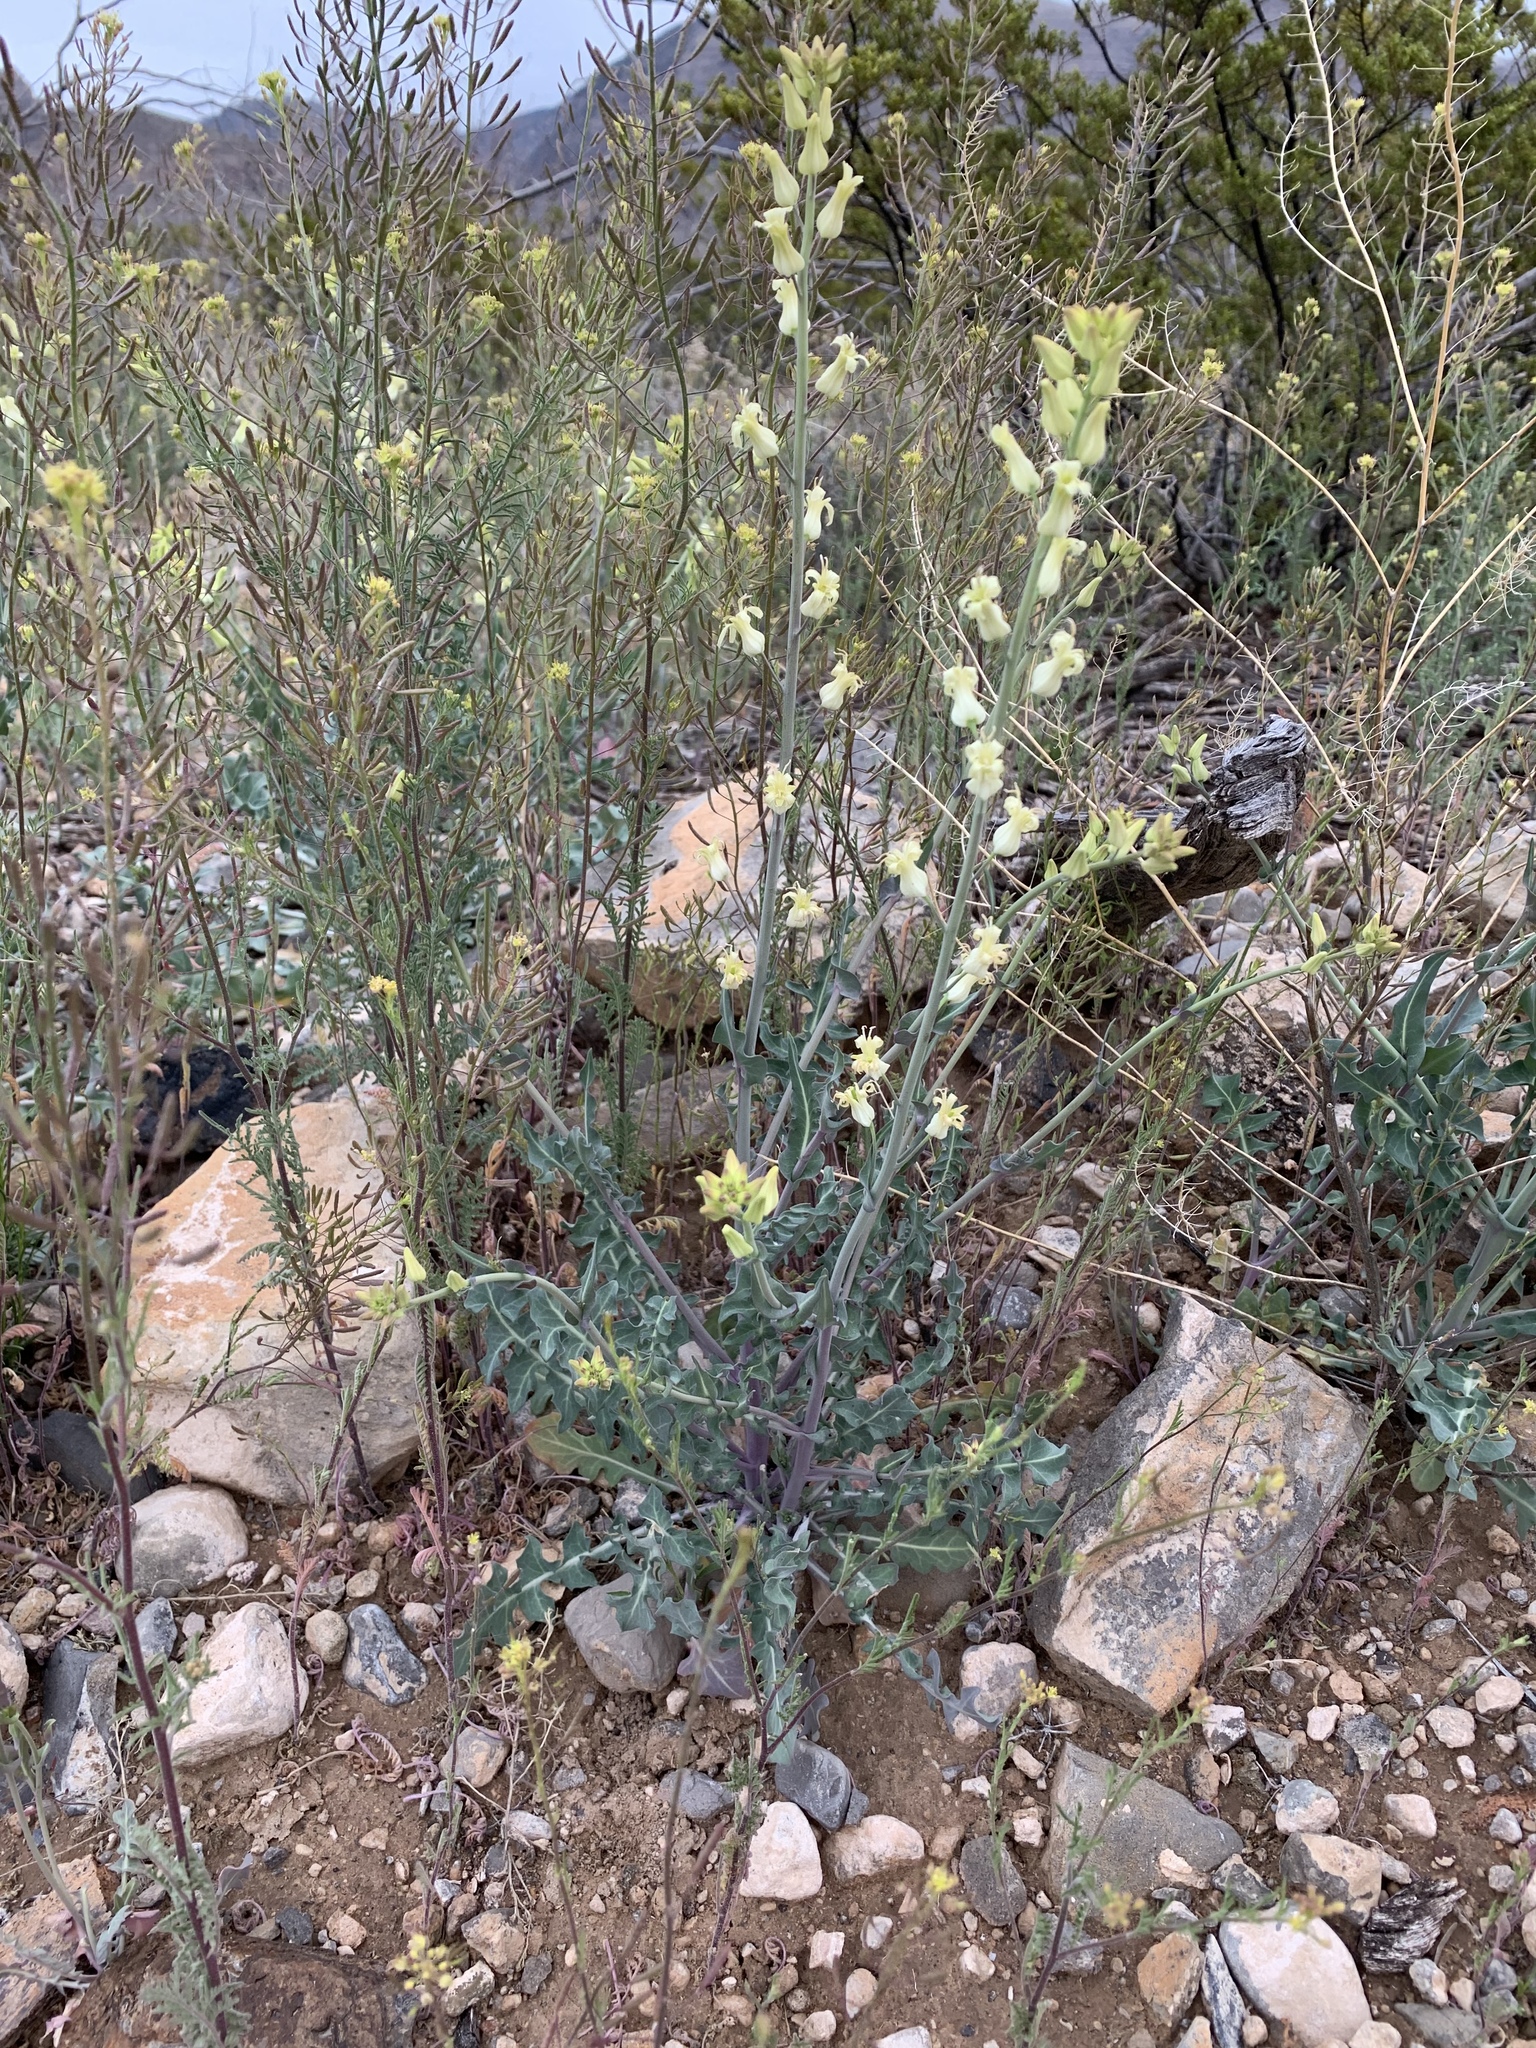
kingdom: Plantae
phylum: Tracheophyta
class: Magnoliopsida
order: Brassicales
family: Brassicaceae
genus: Streptanthus
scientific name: Streptanthus carinatus
